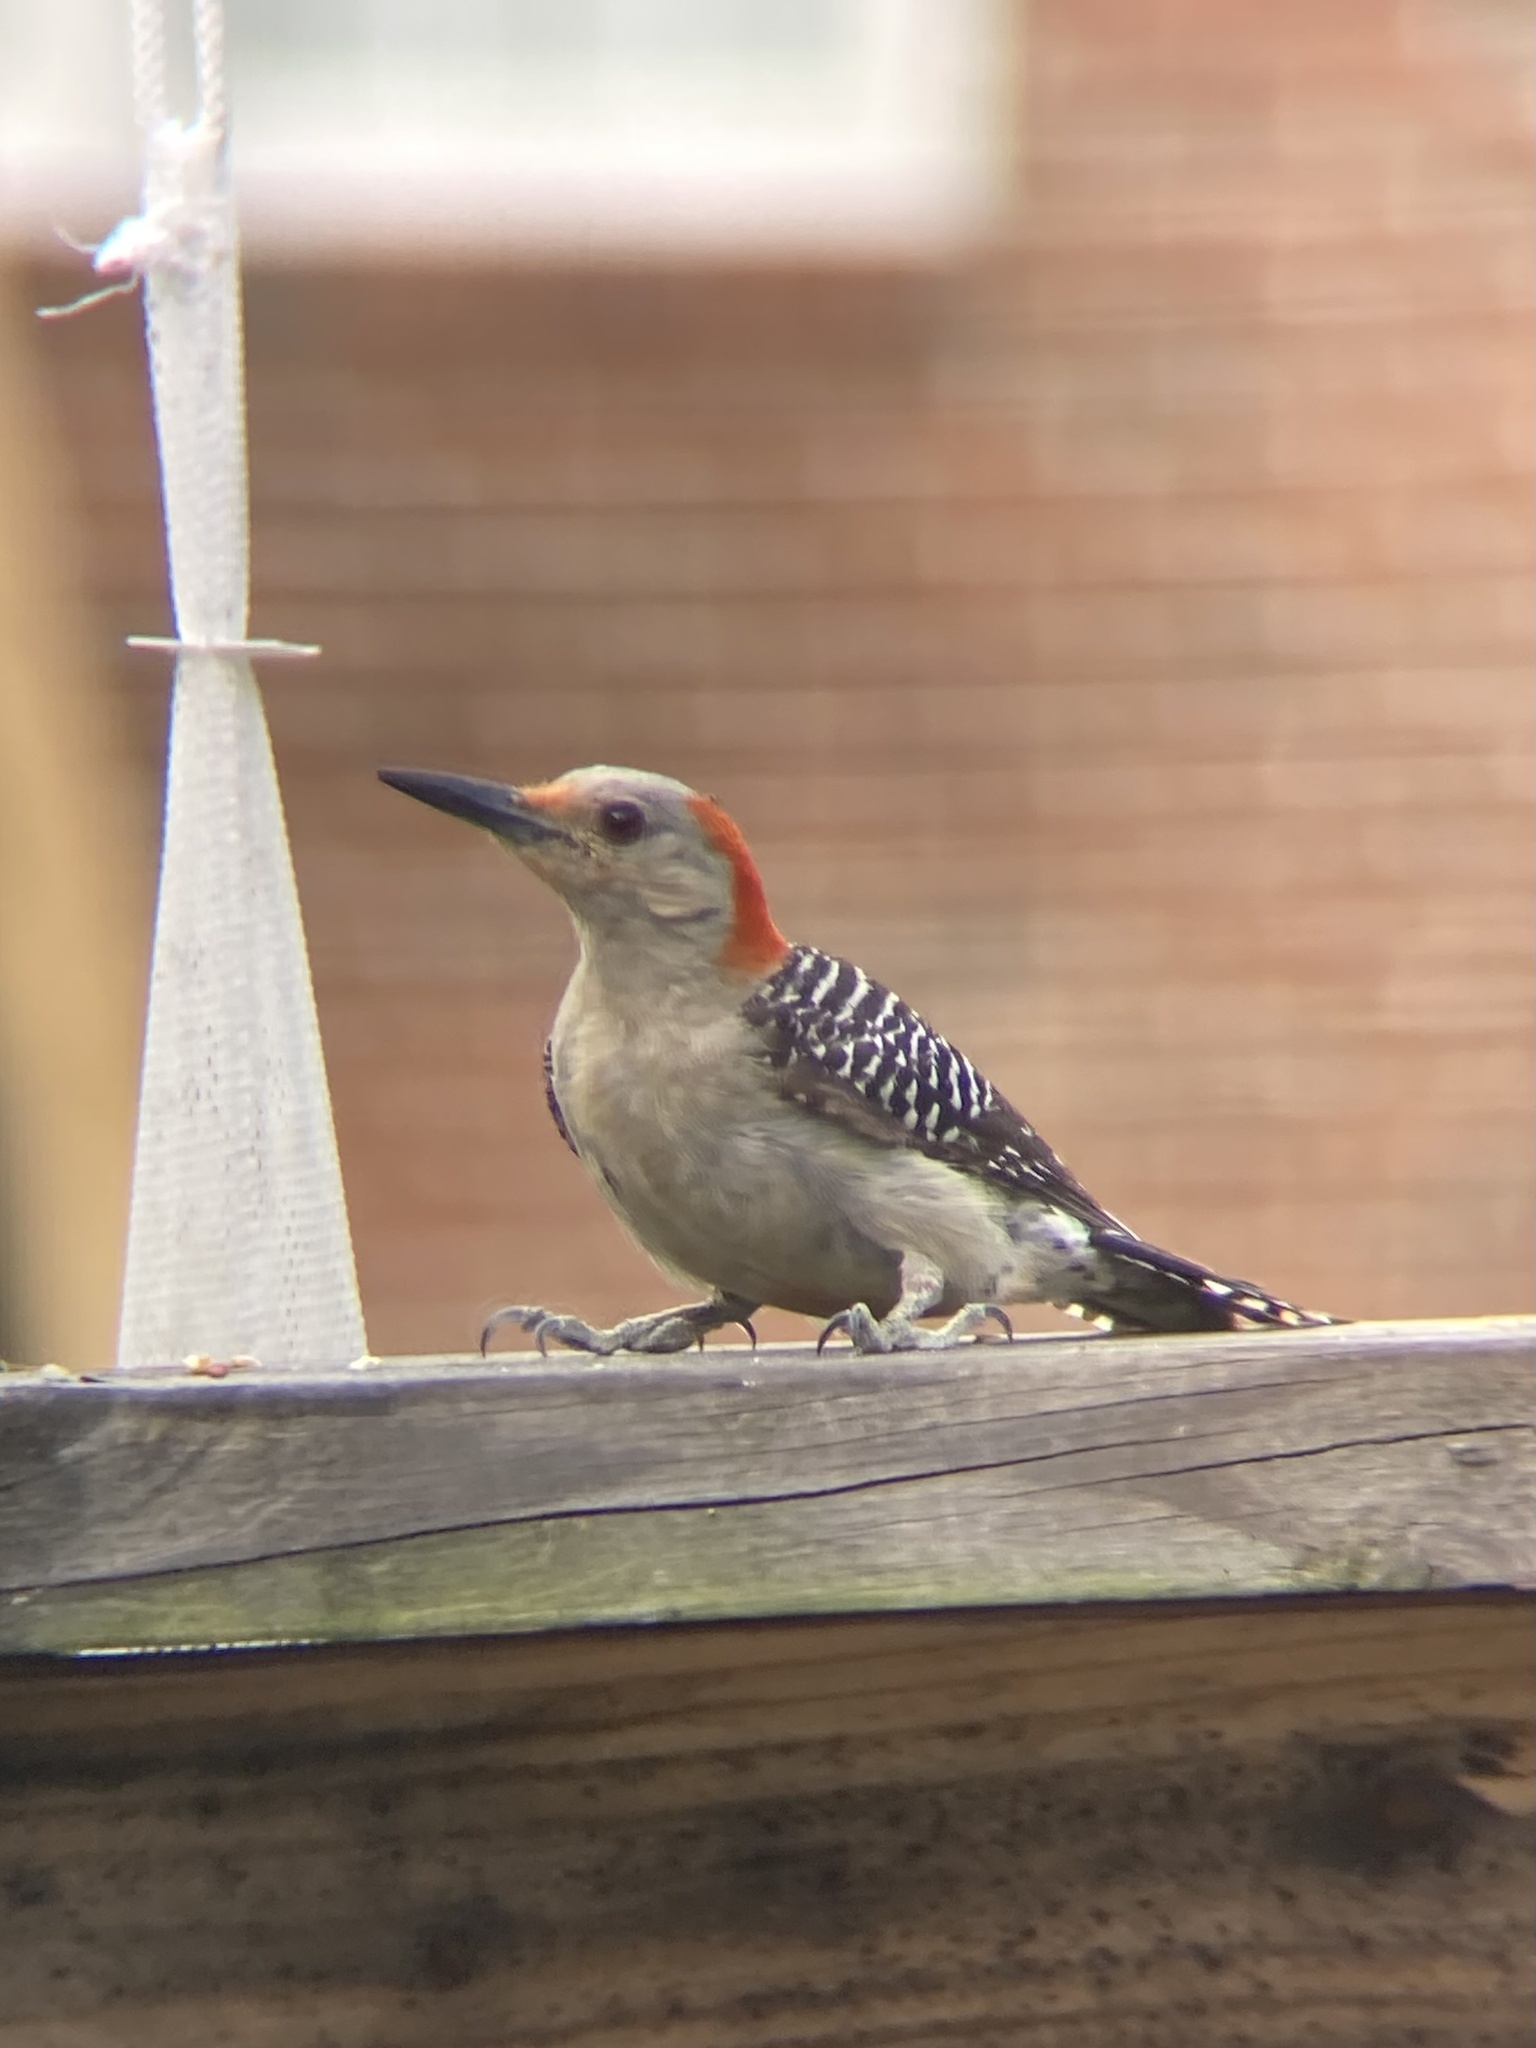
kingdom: Animalia
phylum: Chordata
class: Aves
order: Piciformes
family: Picidae
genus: Melanerpes
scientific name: Melanerpes carolinus
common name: Red-bellied woodpecker
